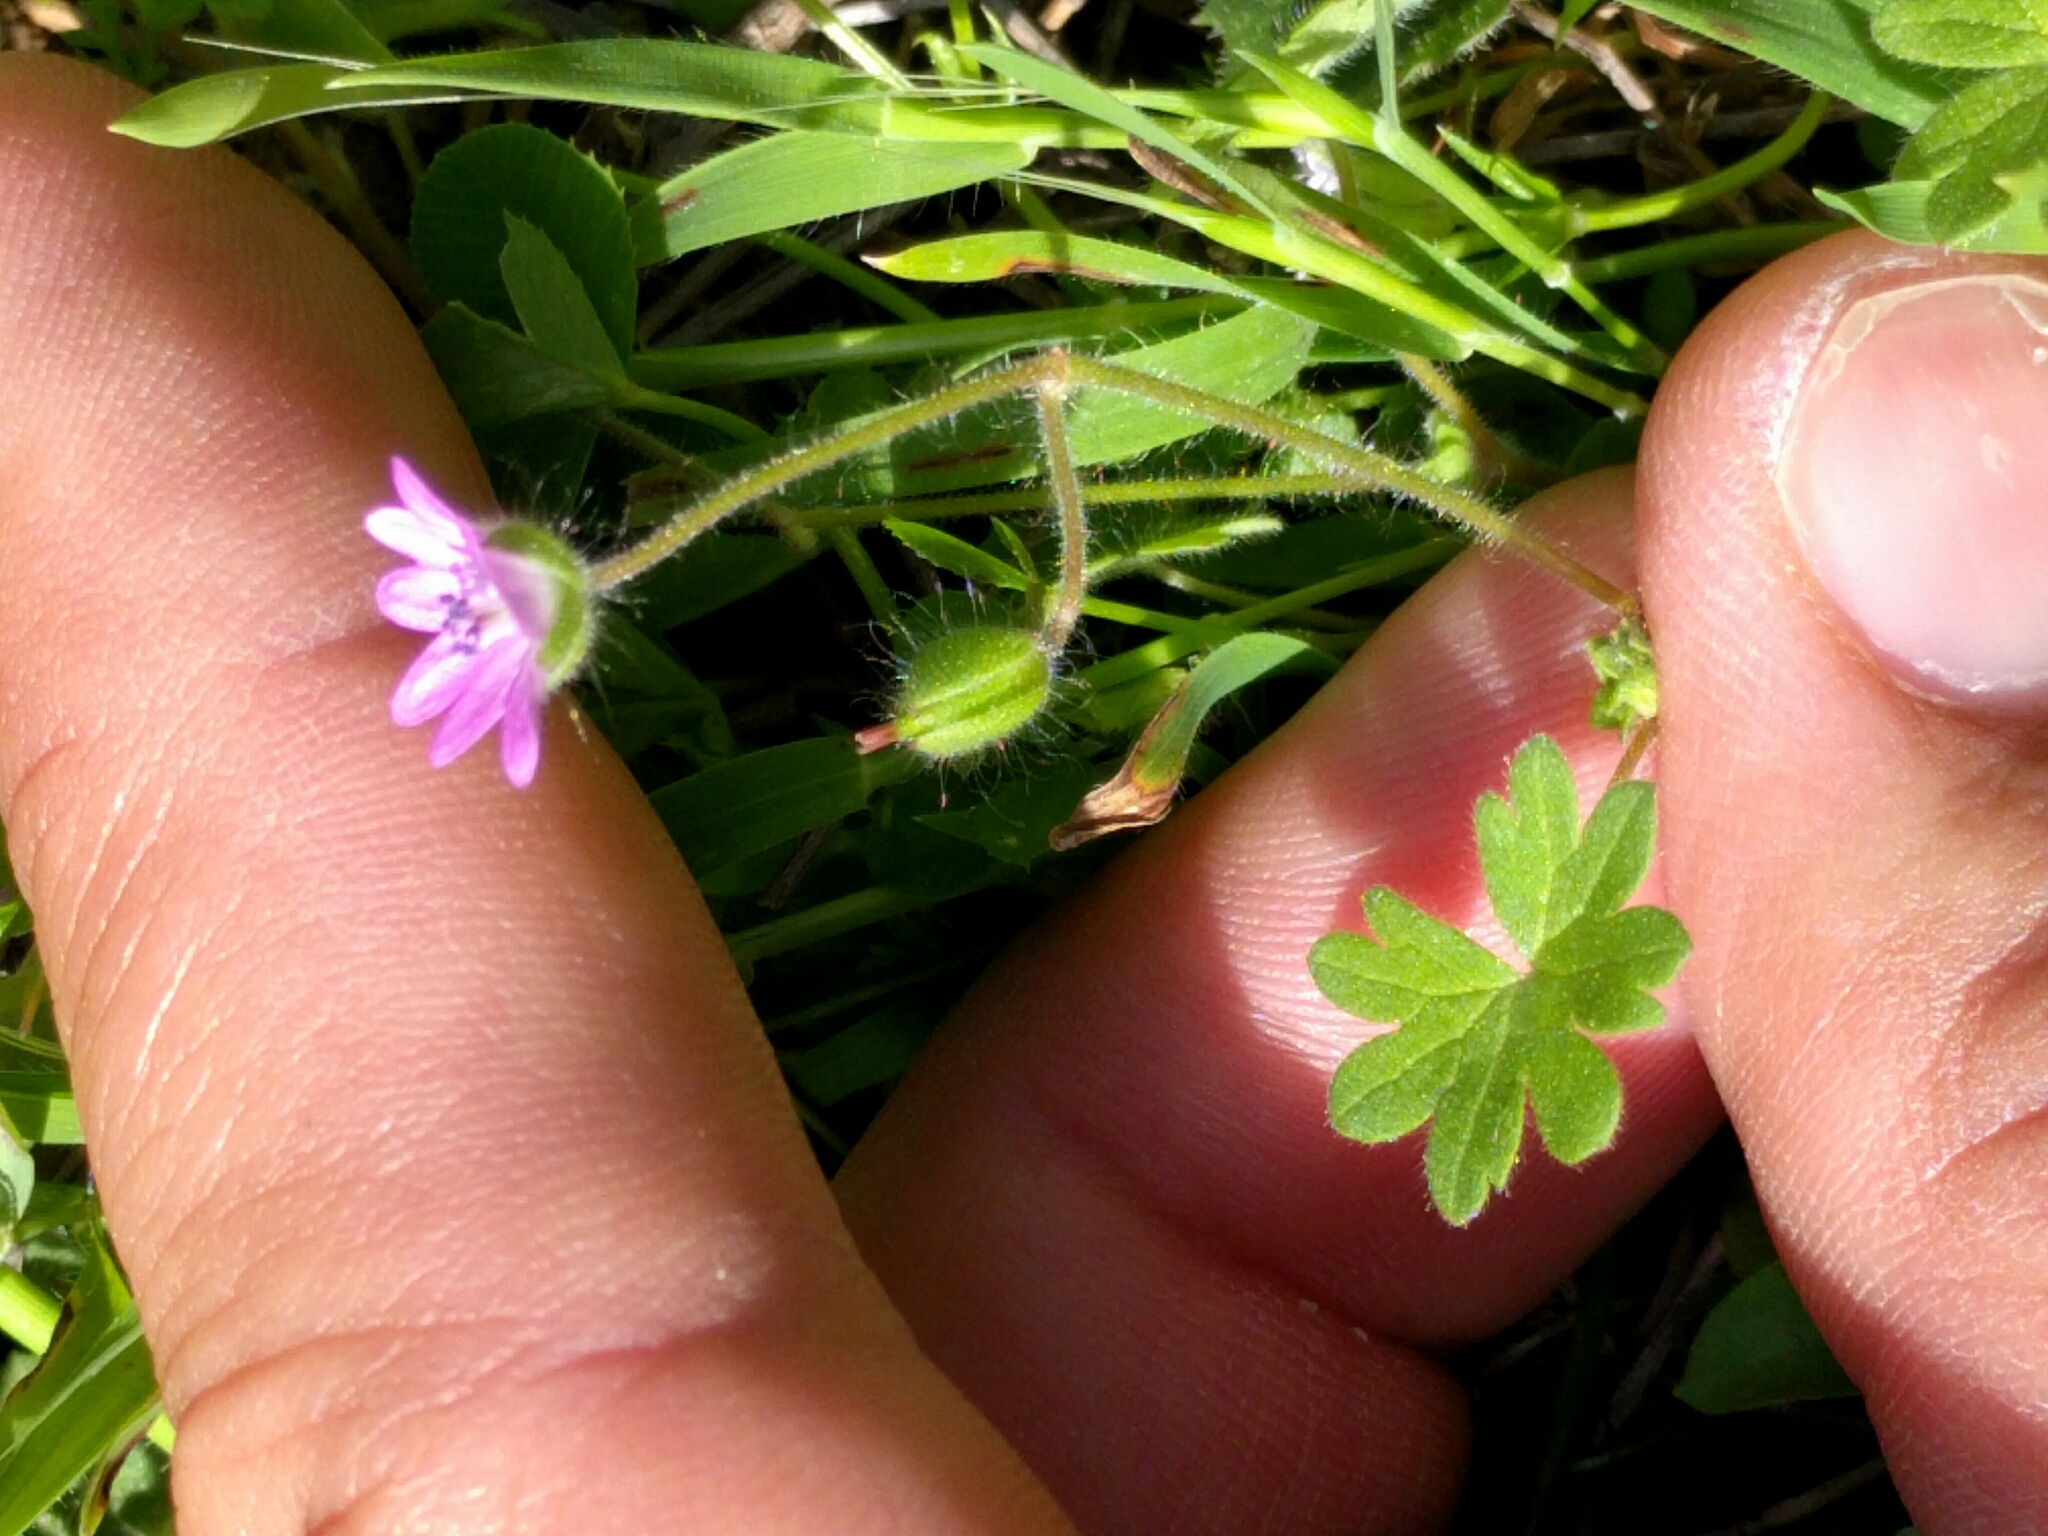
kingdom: Plantae
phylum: Tracheophyta
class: Magnoliopsida
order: Geraniales
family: Geraniaceae
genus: Geranium
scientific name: Geranium molle
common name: Dove's-foot crane's-bill
